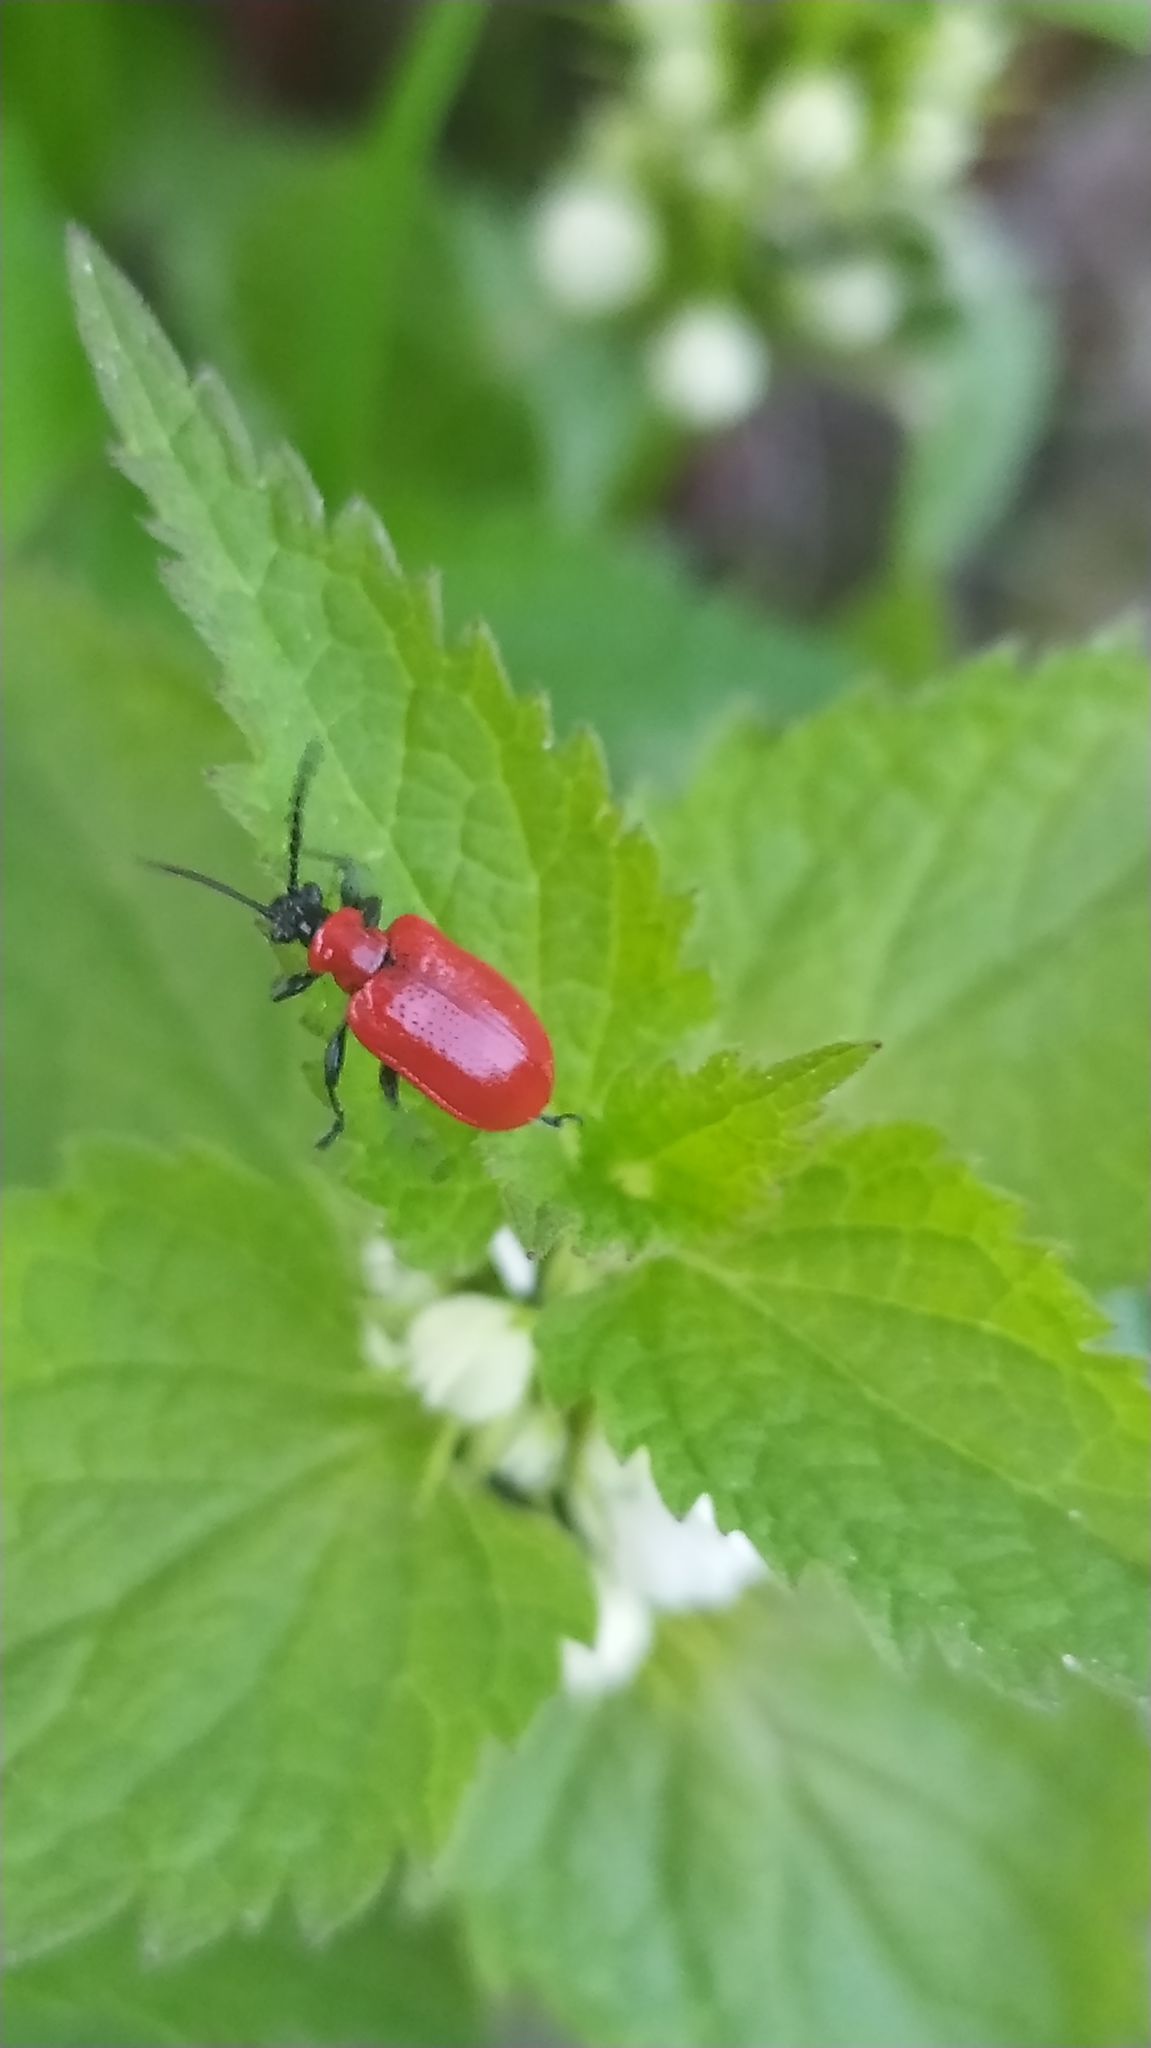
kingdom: Animalia
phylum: Arthropoda
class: Insecta
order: Coleoptera
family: Chrysomelidae
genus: Lilioceris
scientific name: Lilioceris lilii
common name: Lily beetle
